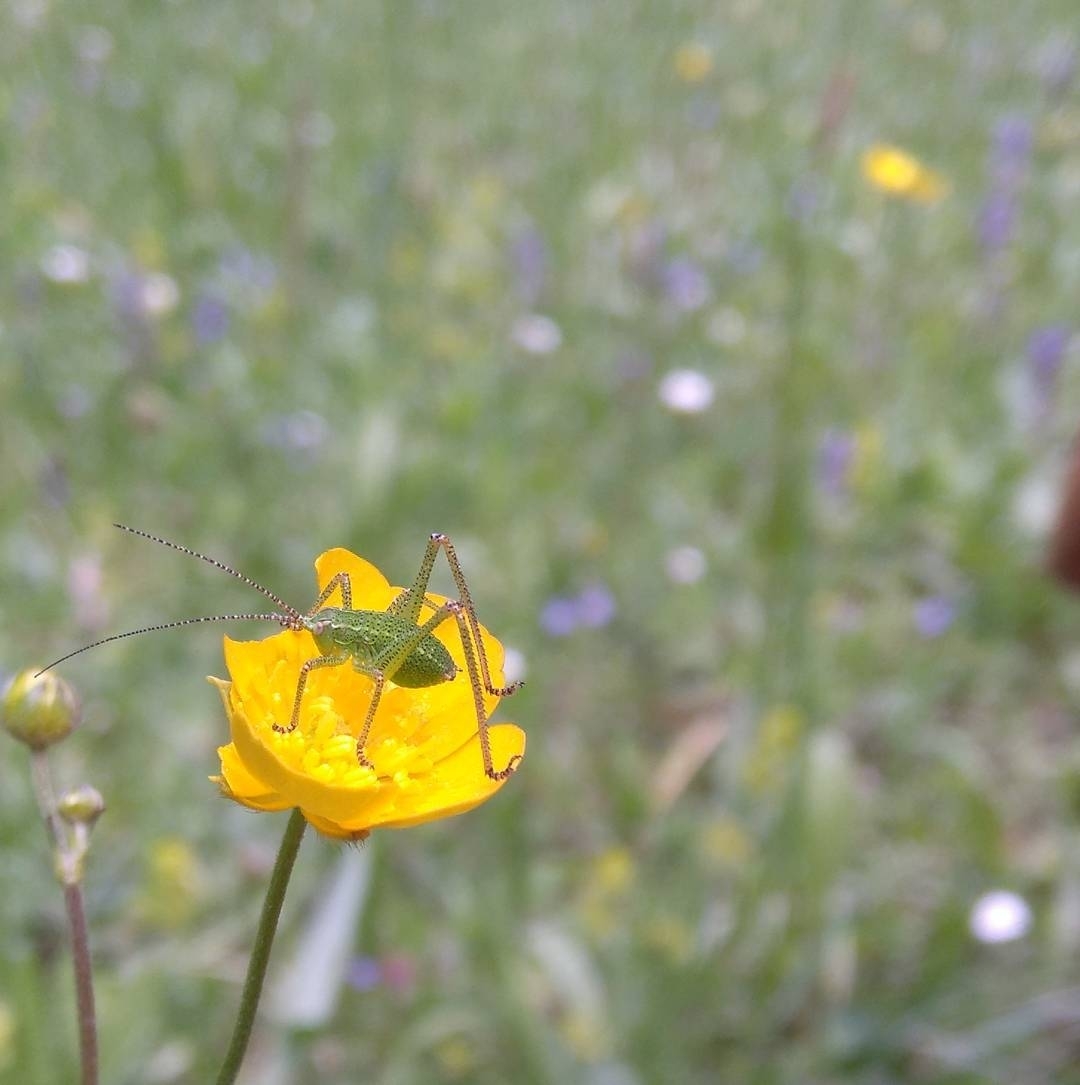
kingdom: Animalia
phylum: Arthropoda
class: Insecta
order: Orthoptera
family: Tettigoniidae
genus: Barbitistes
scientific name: Barbitistes serricauda
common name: Saw-tailed bush-cricket
